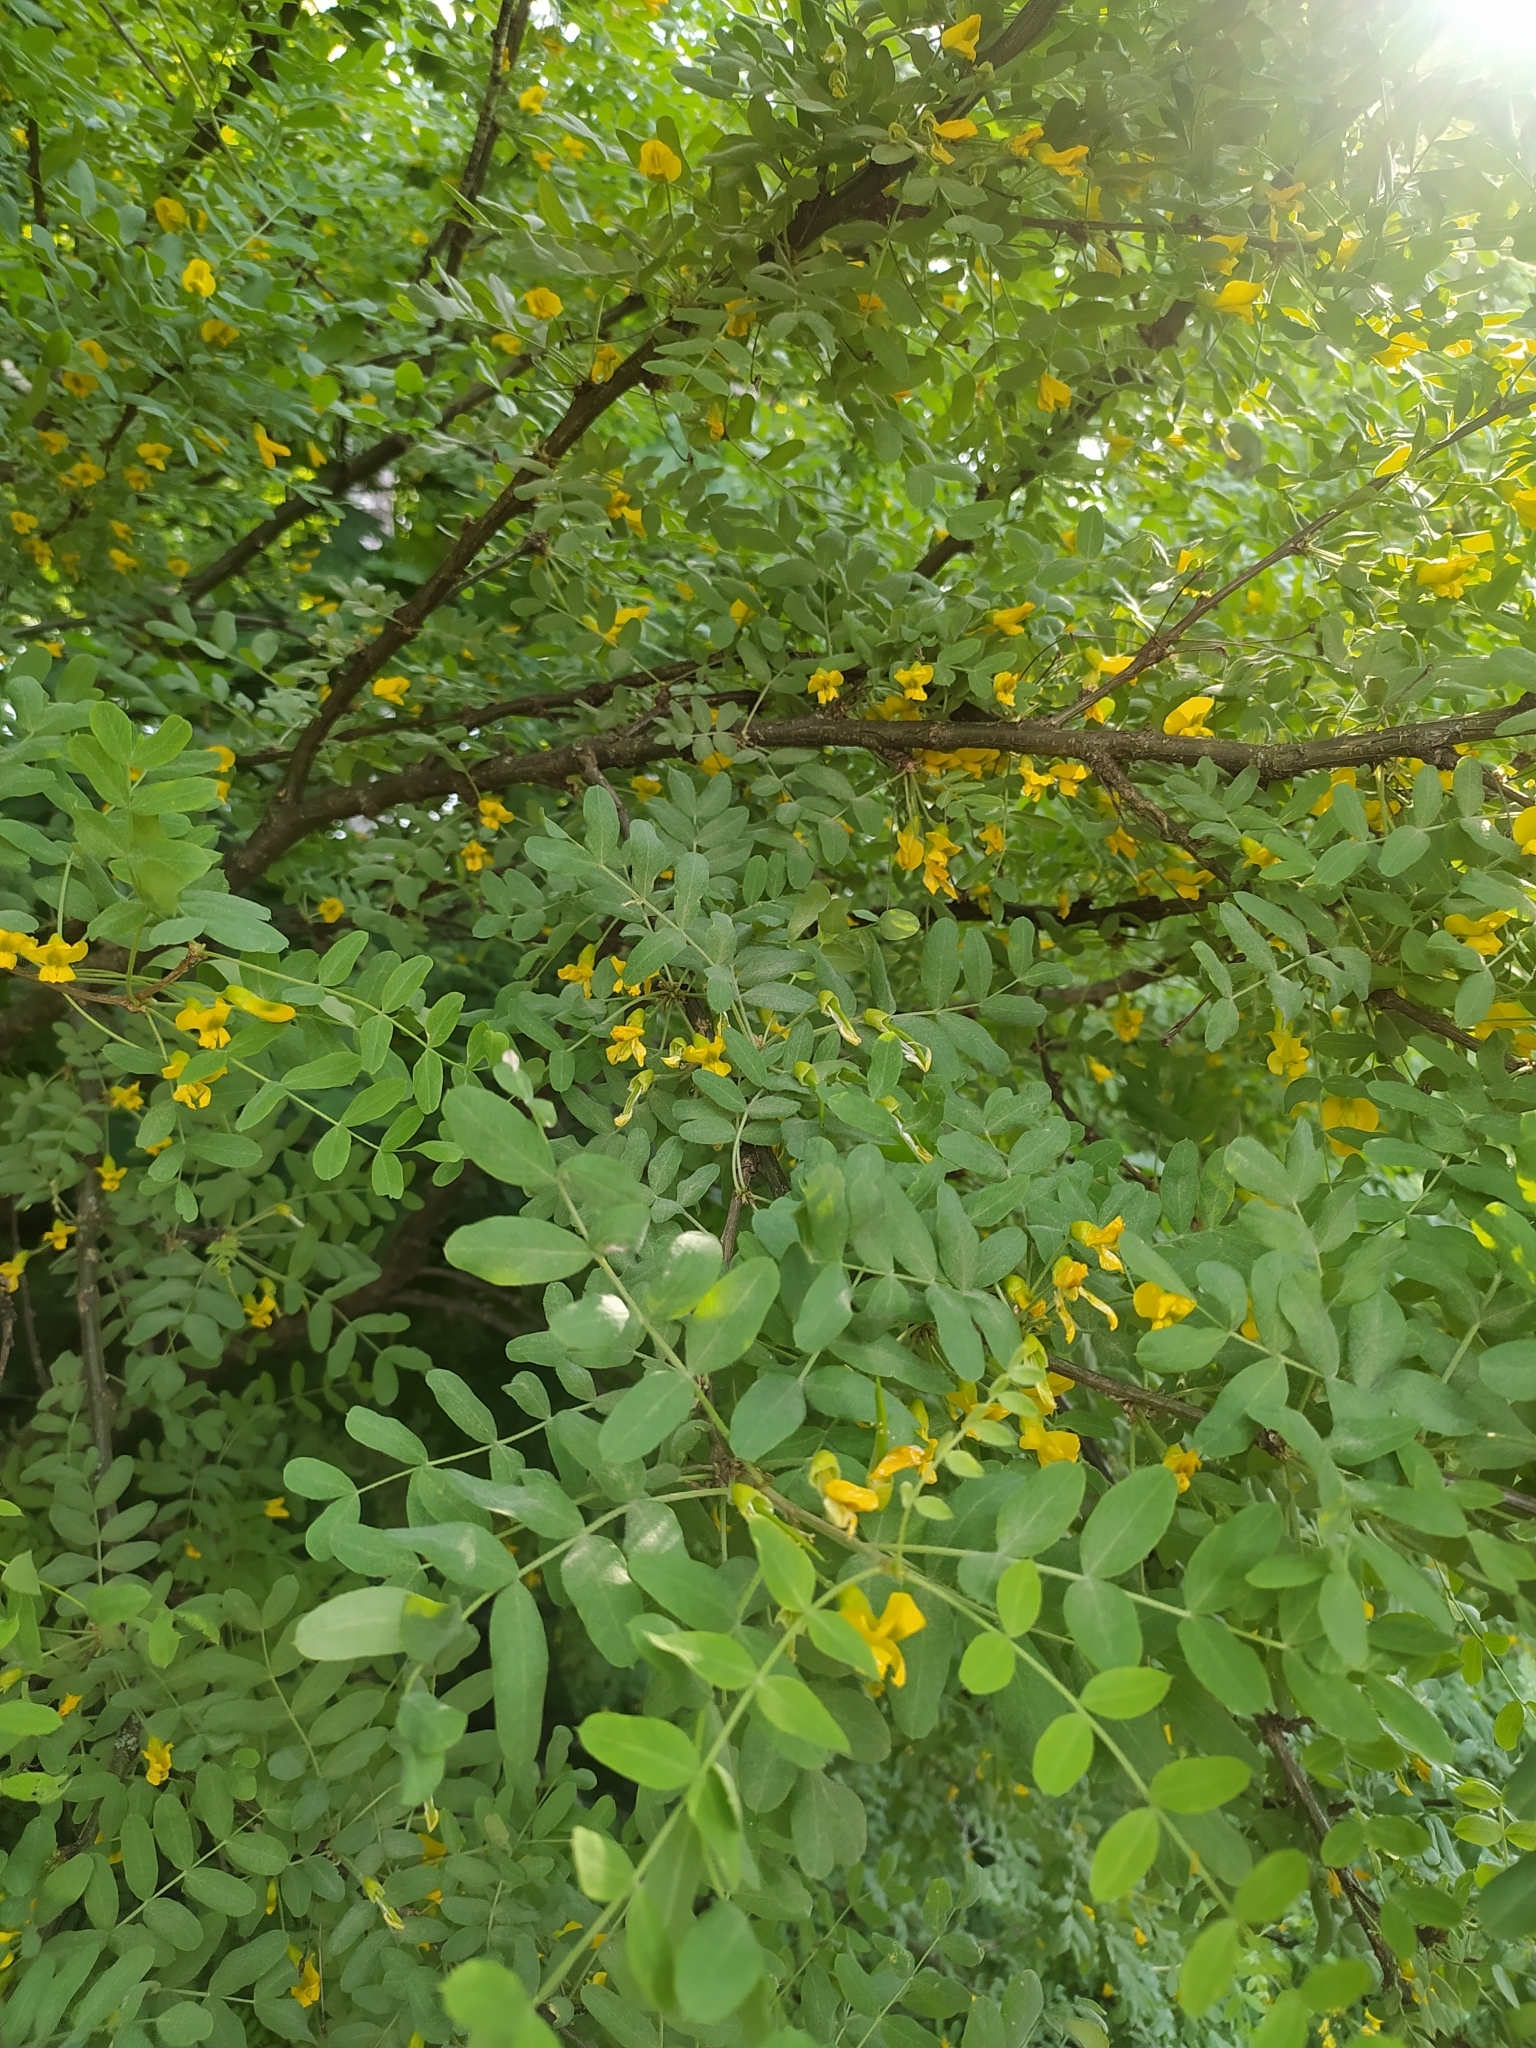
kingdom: Plantae
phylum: Tracheophyta
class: Magnoliopsida
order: Fabales
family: Fabaceae
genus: Caragana
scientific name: Caragana arborescens
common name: Siberian peashrub
